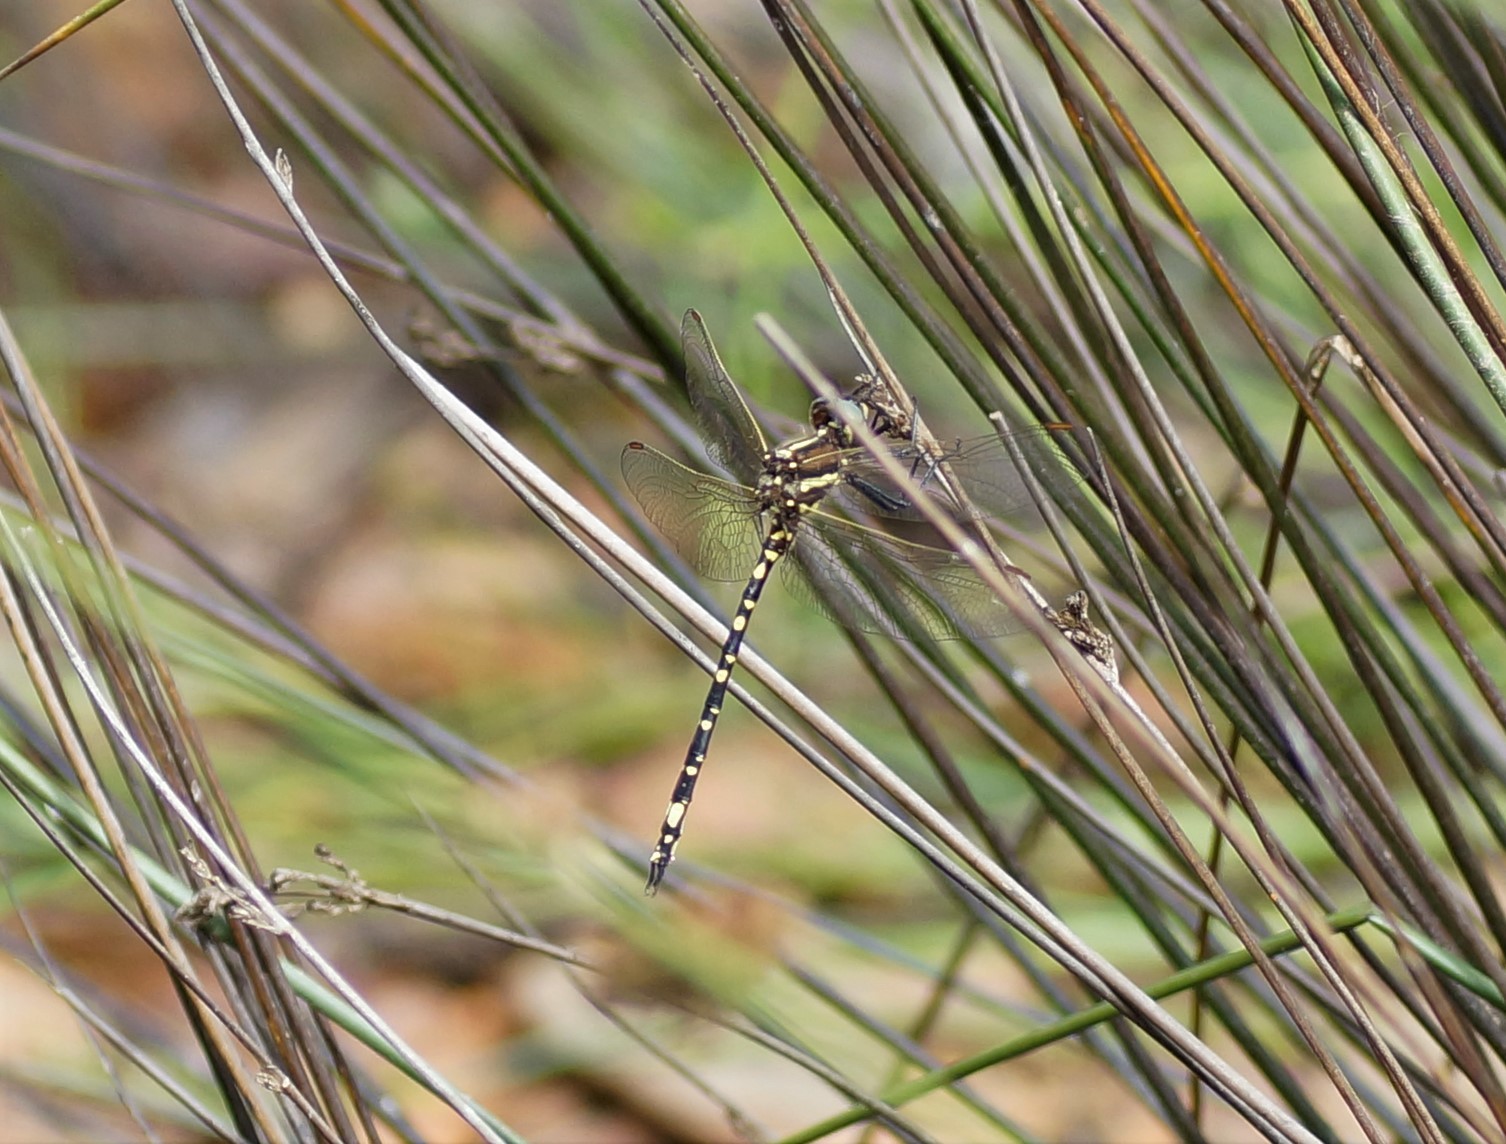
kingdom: Animalia
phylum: Arthropoda
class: Insecta
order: Odonata
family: Synthemistidae
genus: Synthemis
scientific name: Synthemis eustalacta
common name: Swamp tigertail
